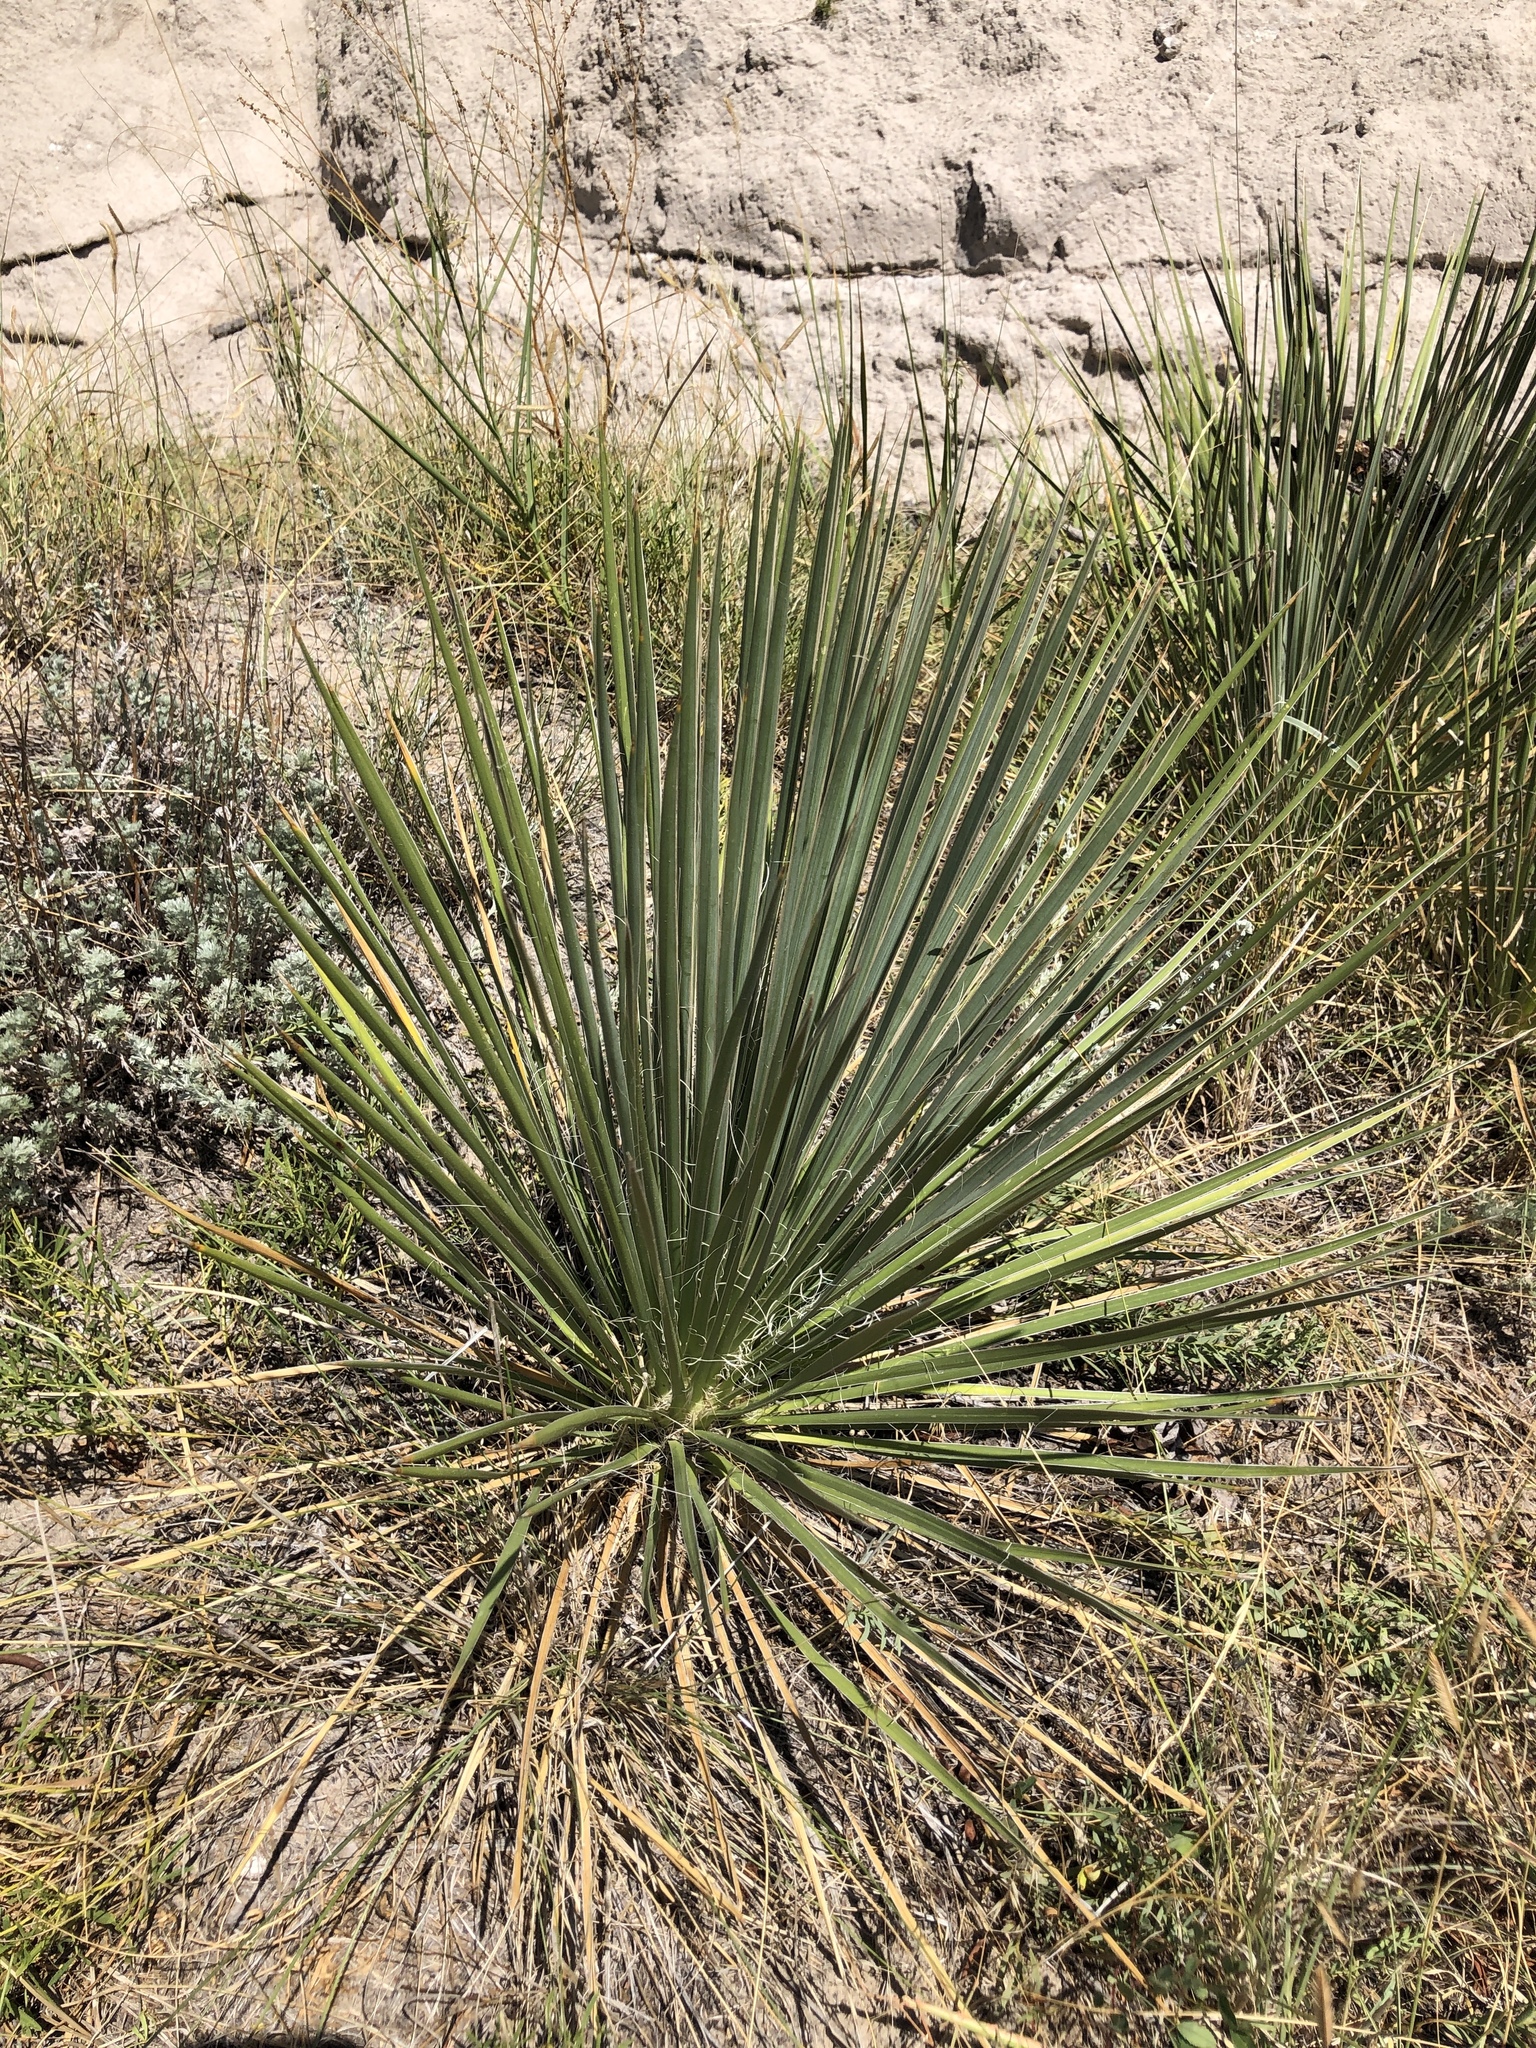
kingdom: Plantae
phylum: Tracheophyta
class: Liliopsida
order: Asparagales
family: Asparagaceae
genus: Yucca
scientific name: Yucca glauca
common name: Great plains yucca
